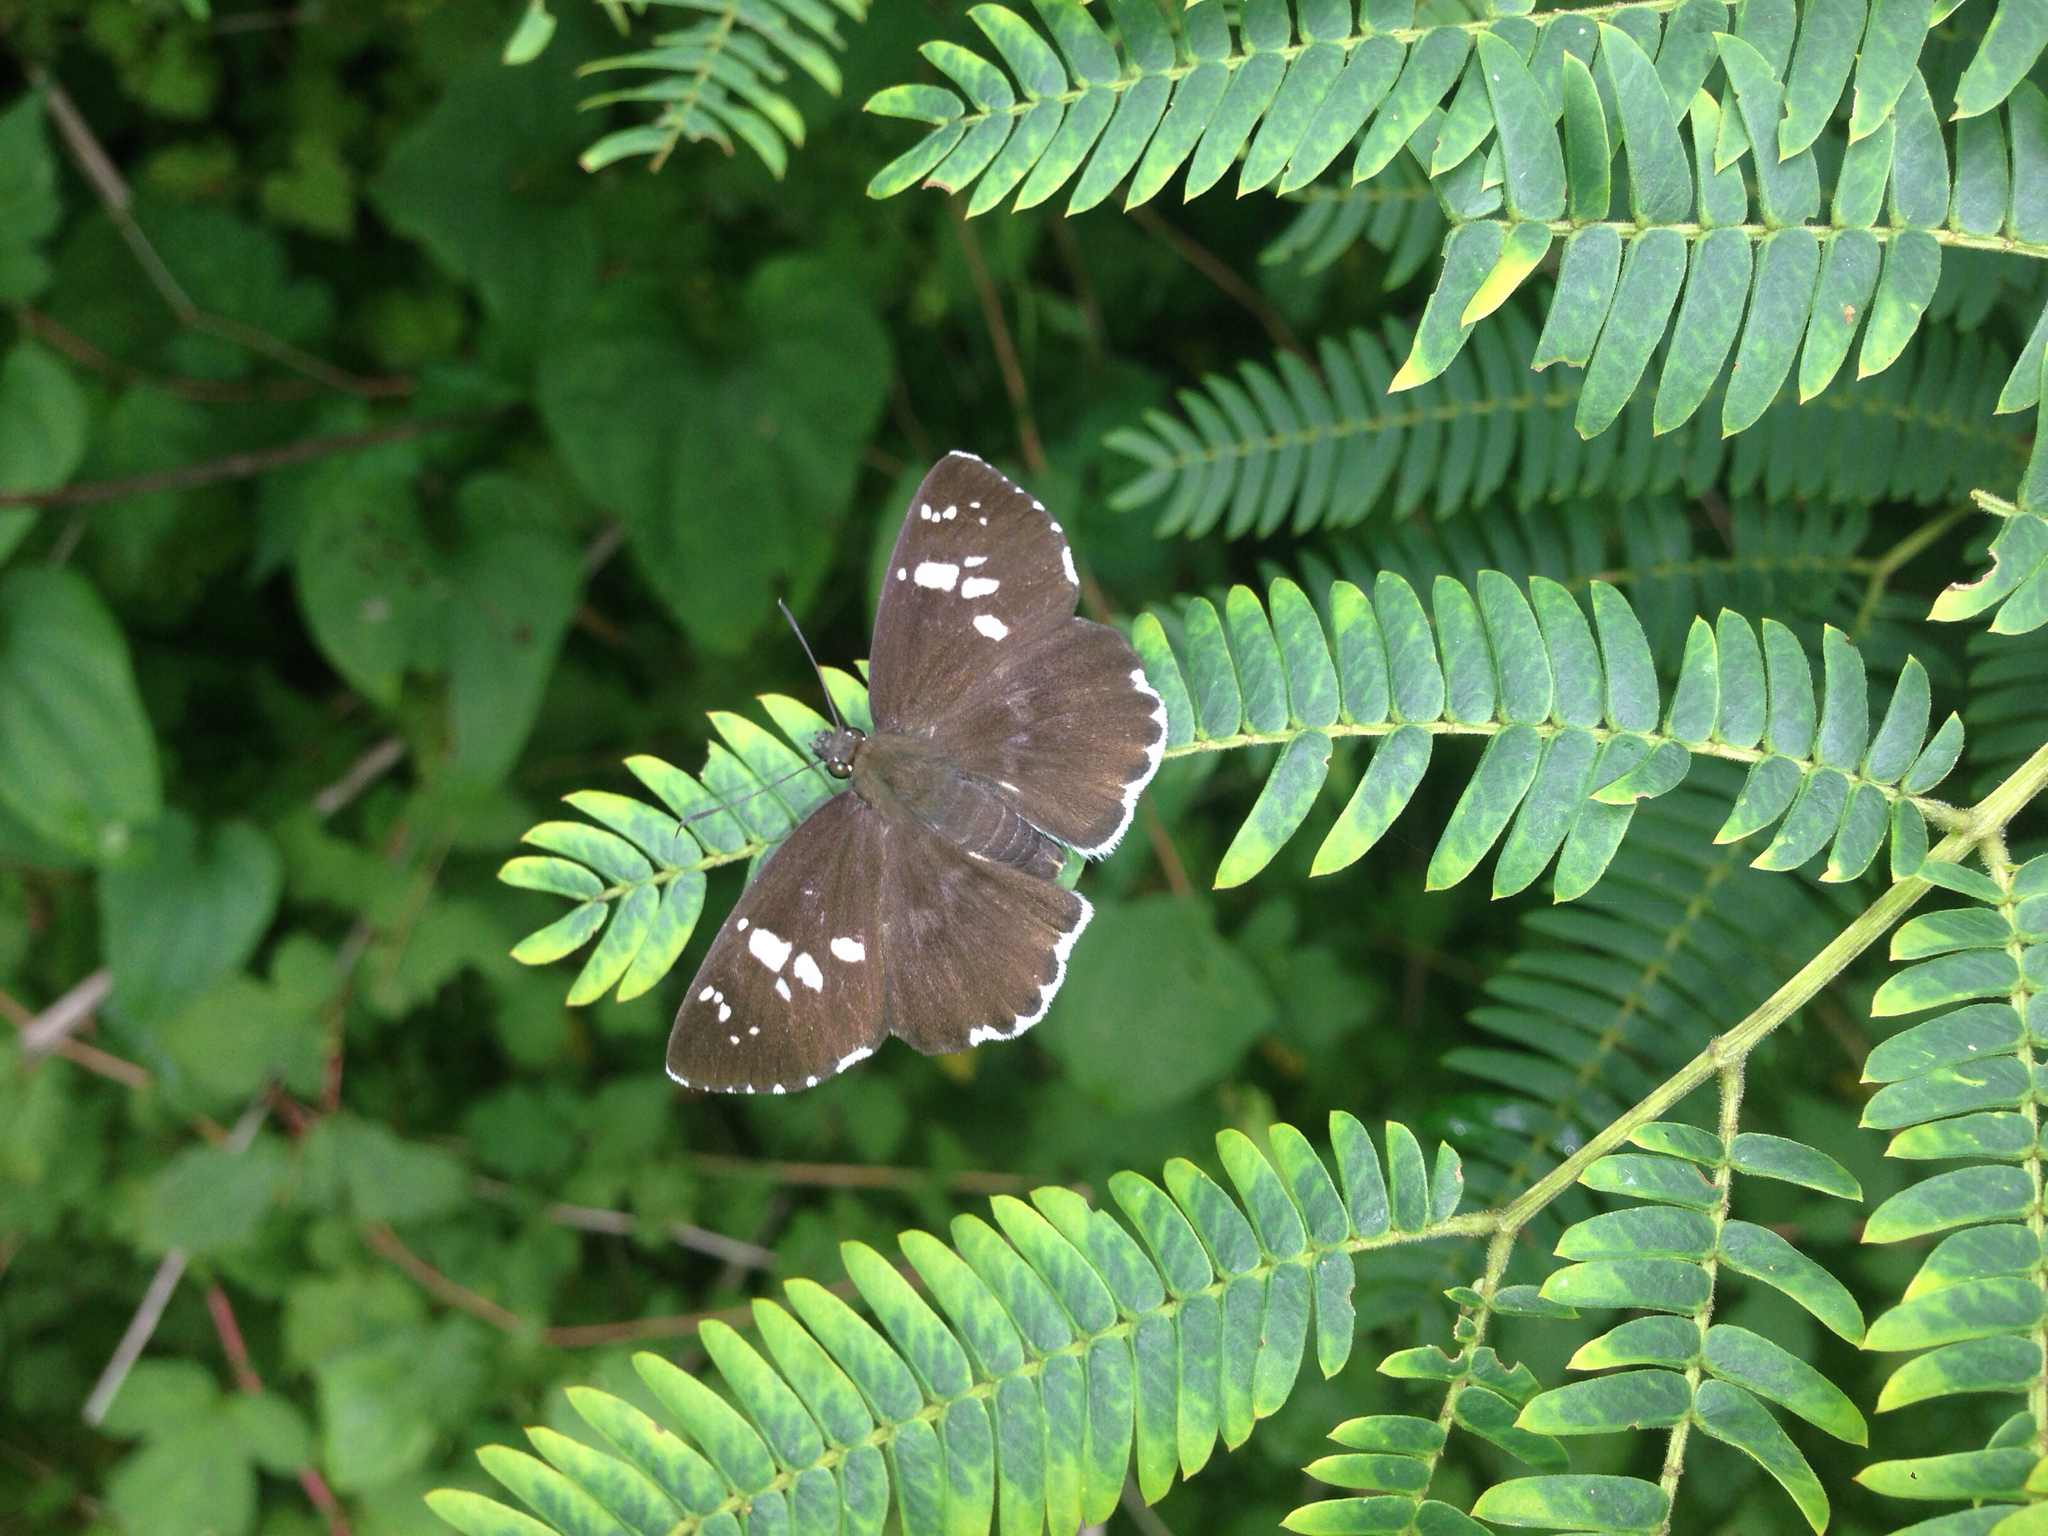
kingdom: Animalia
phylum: Arthropoda
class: Insecta
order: Lepidoptera
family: Hesperiidae
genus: Daimio
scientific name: Daimio tethys
